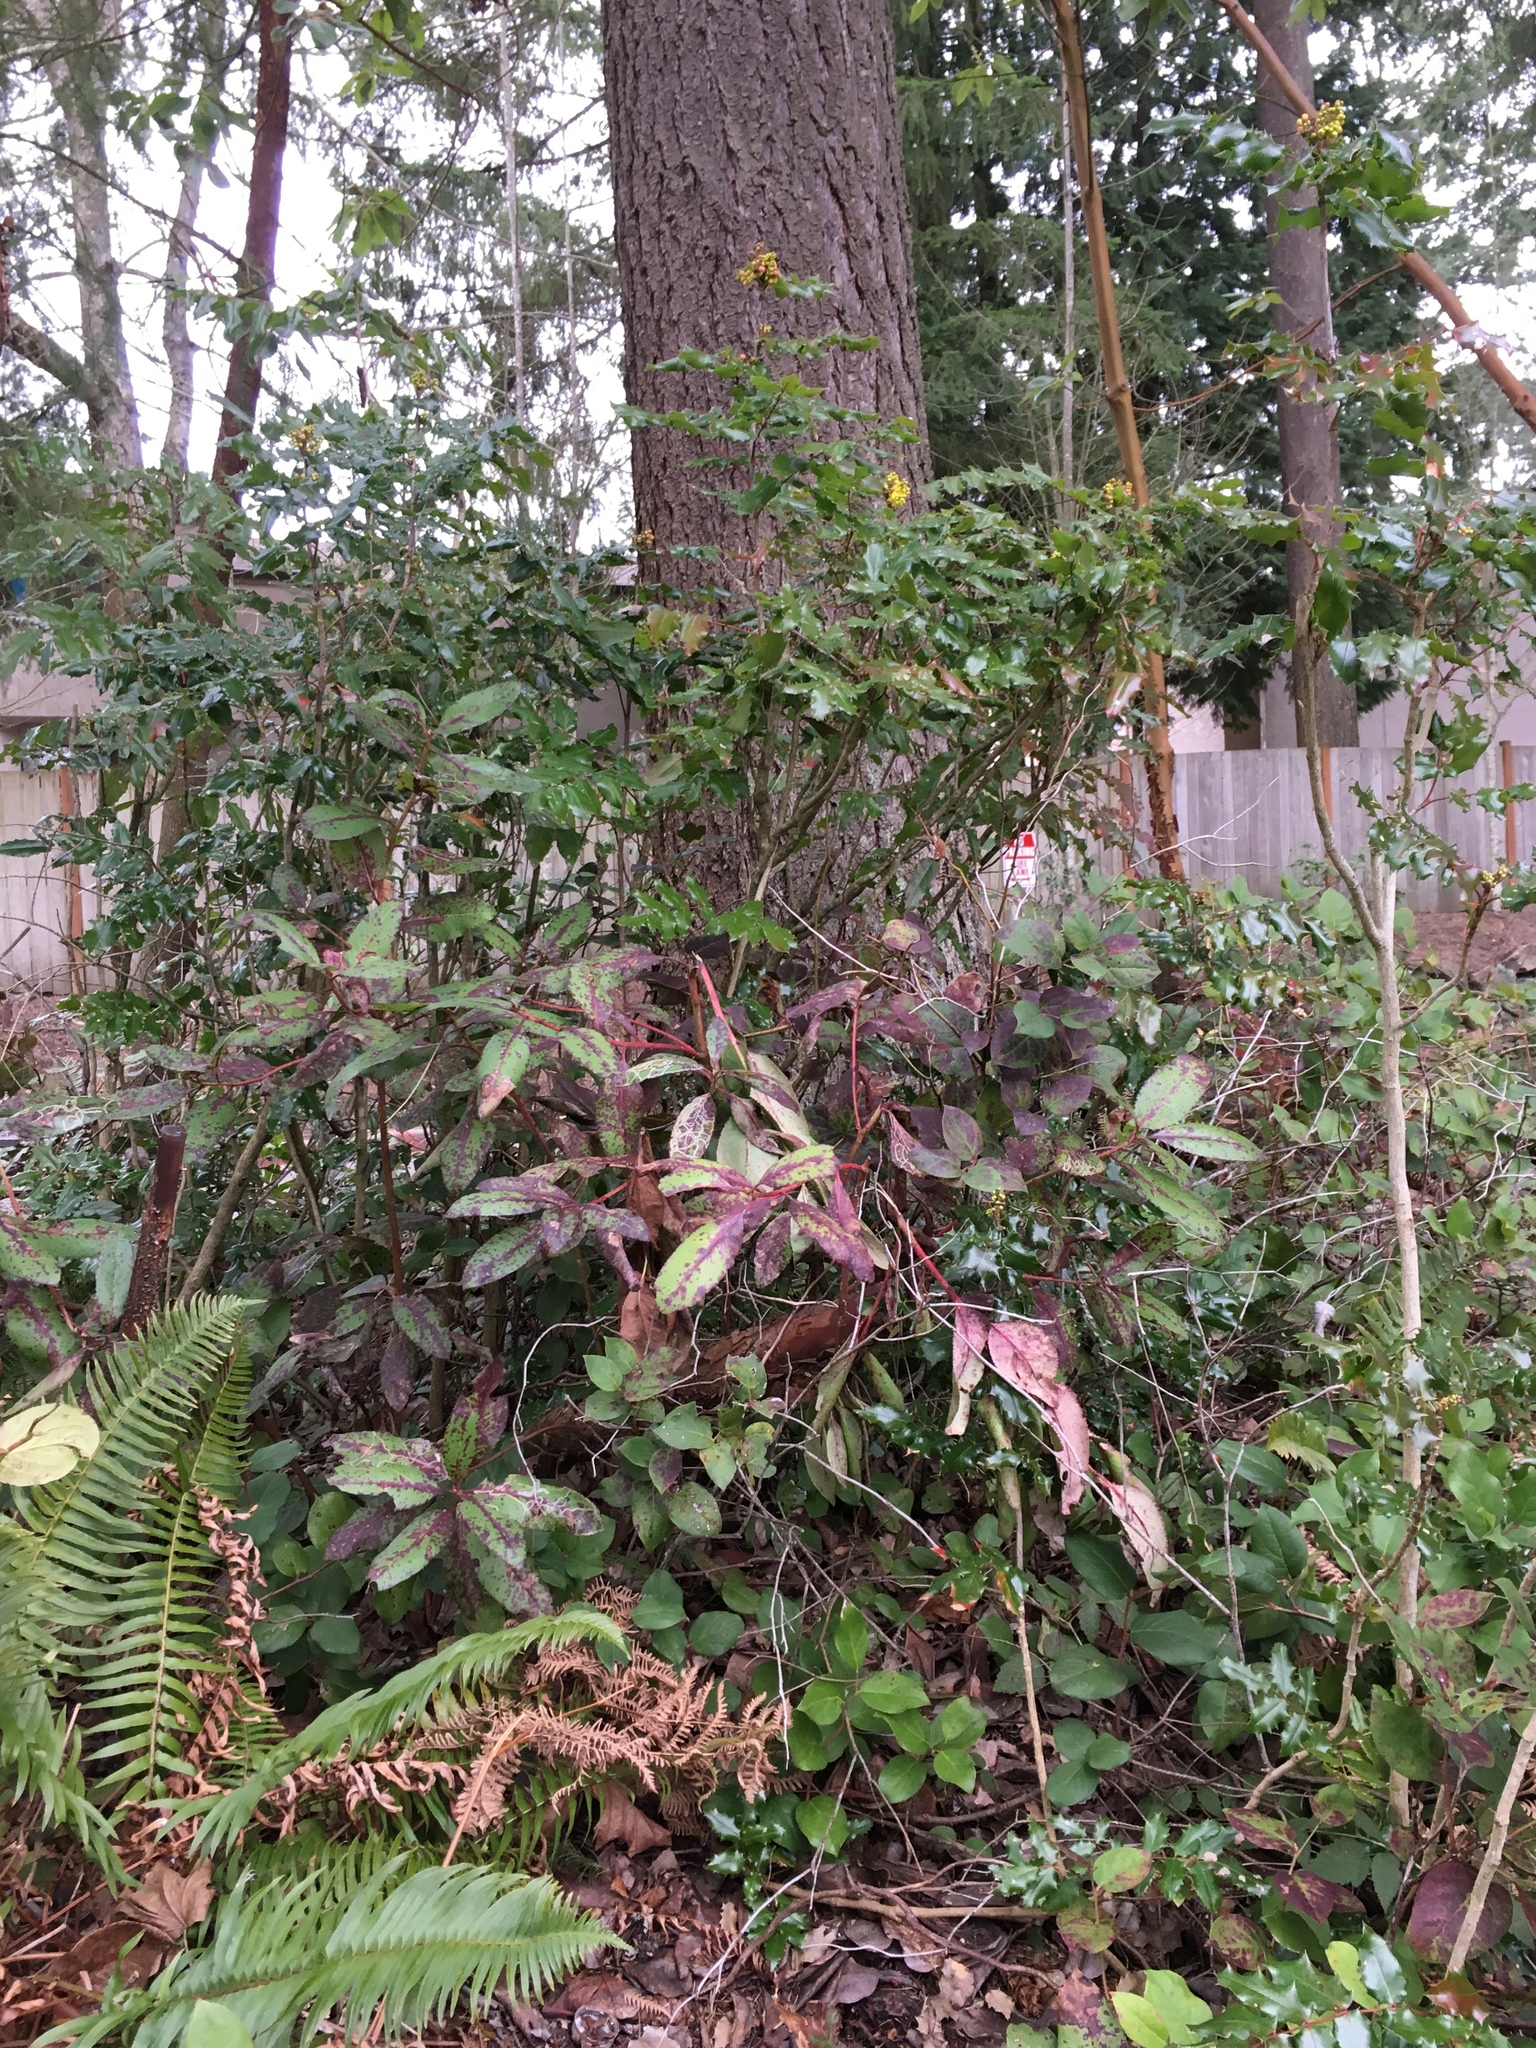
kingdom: Plantae
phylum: Tracheophyta
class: Magnoliopsida
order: Ranunculales
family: Berberidaceae
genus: Mahonia
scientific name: Mahonia aquifolium
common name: Oregon-grape
